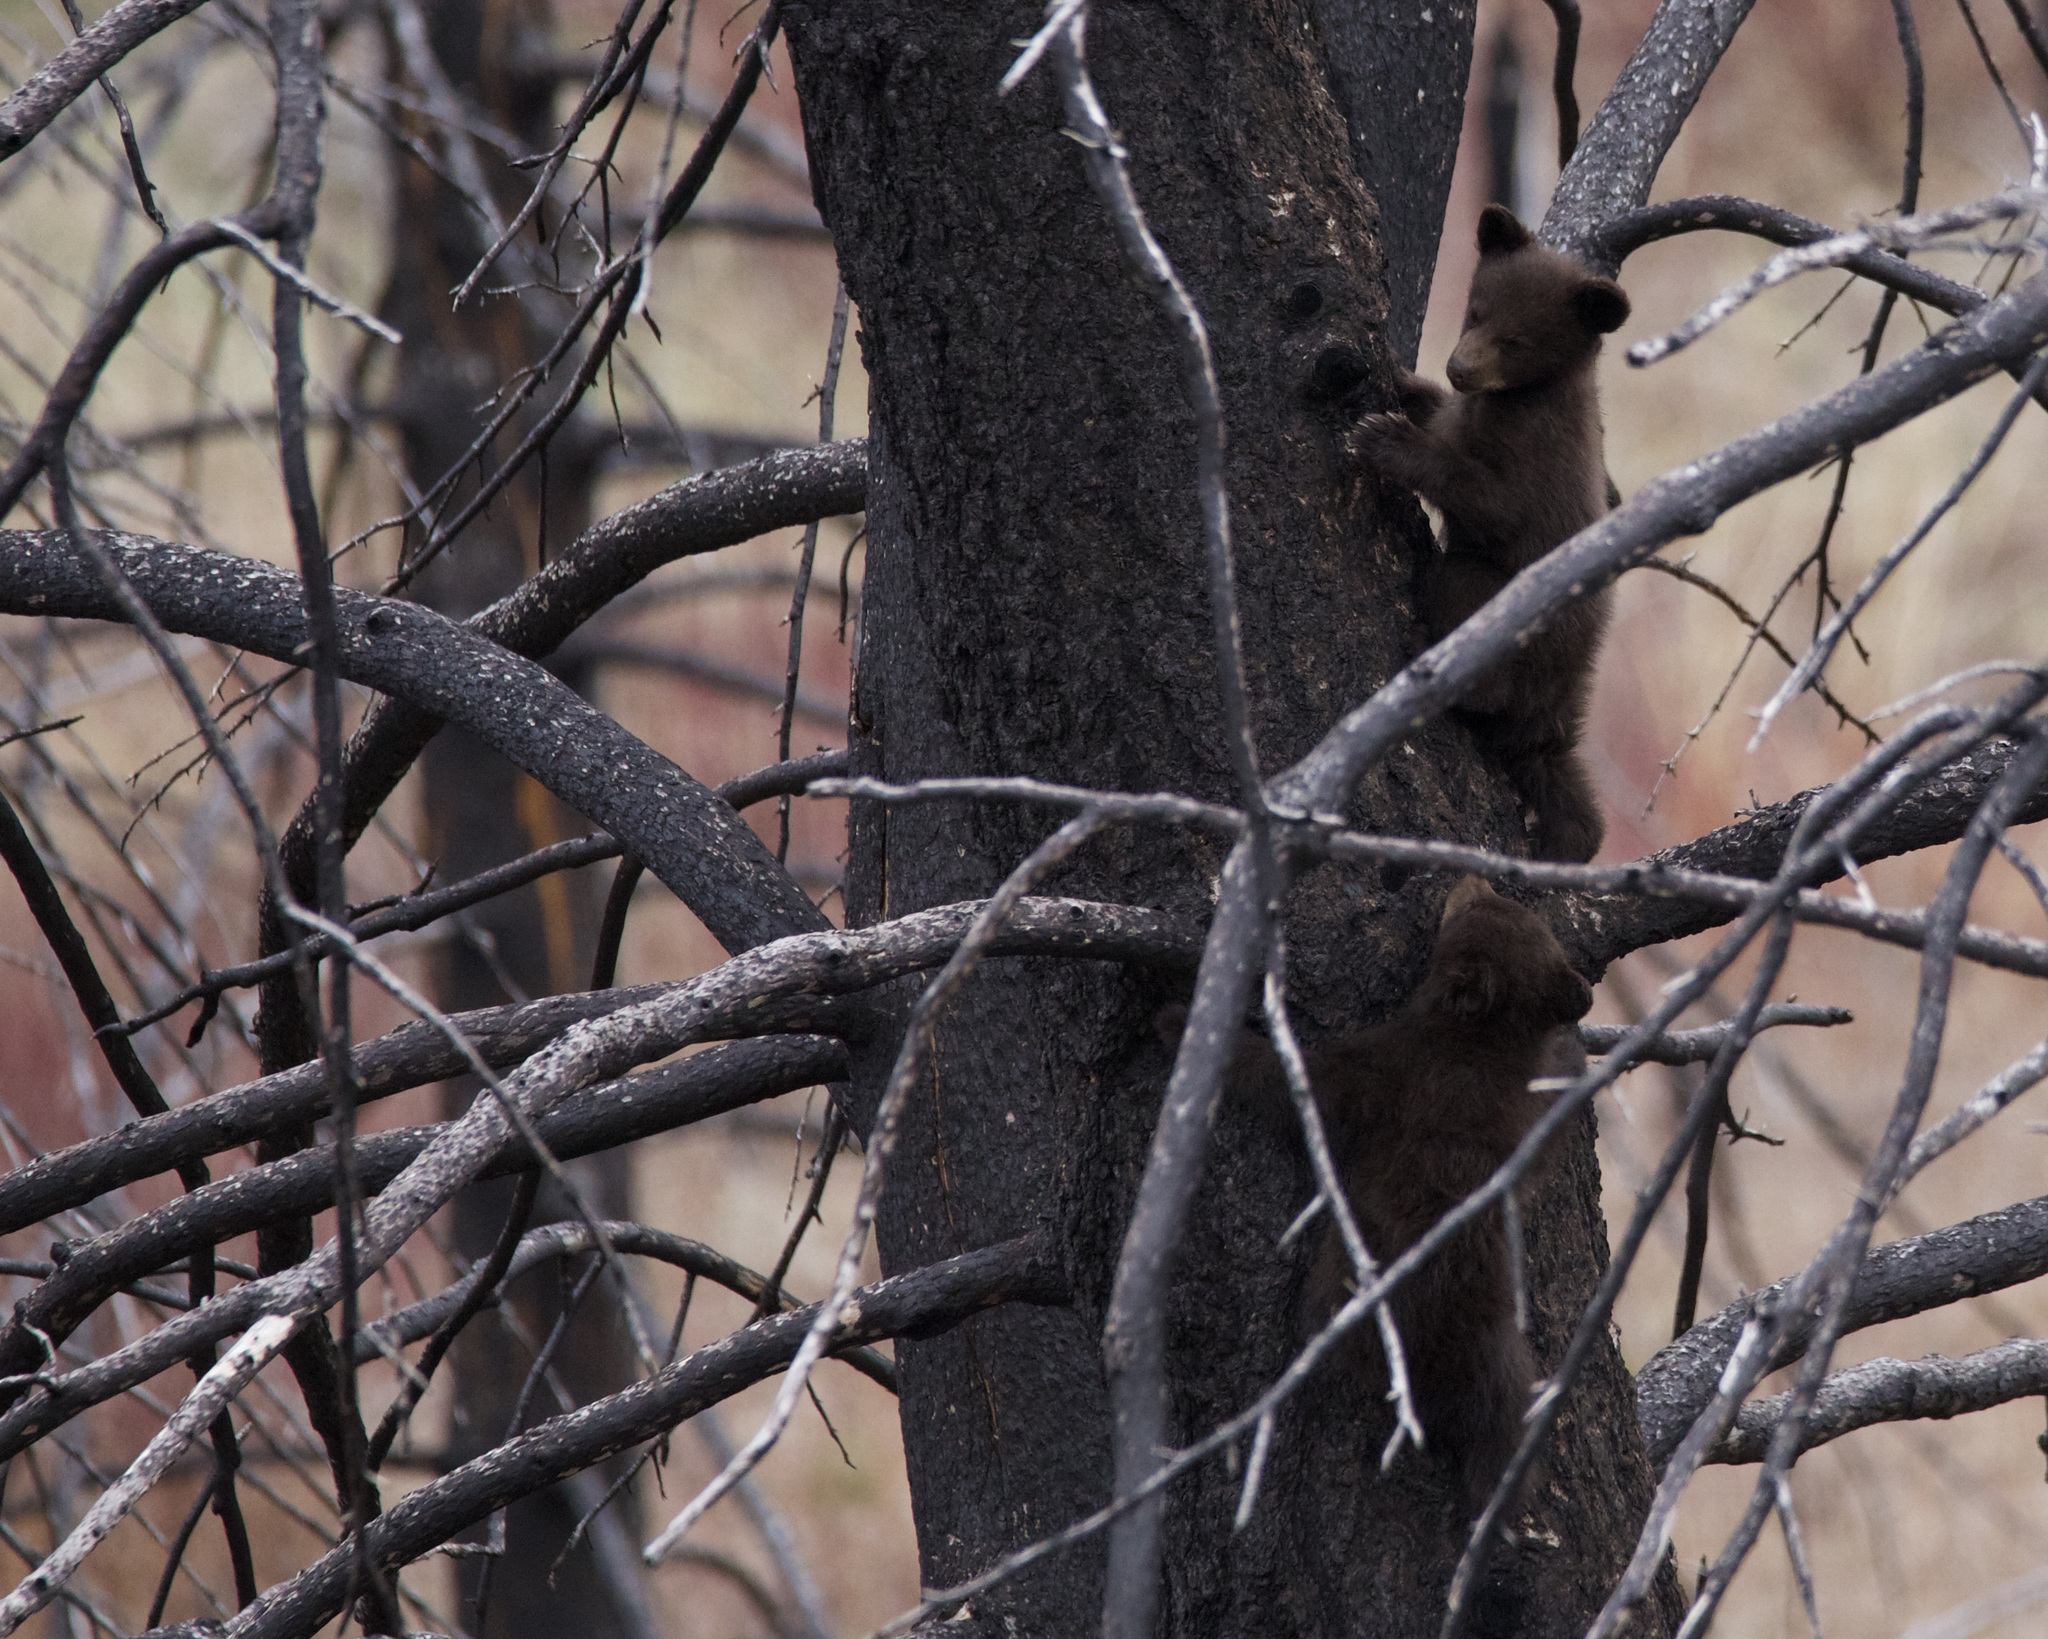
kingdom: Animalia
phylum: Chordata
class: Mammalia
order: Carnivora
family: Ursidae
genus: Ursus
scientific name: Ursus americanus
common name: American black bear
